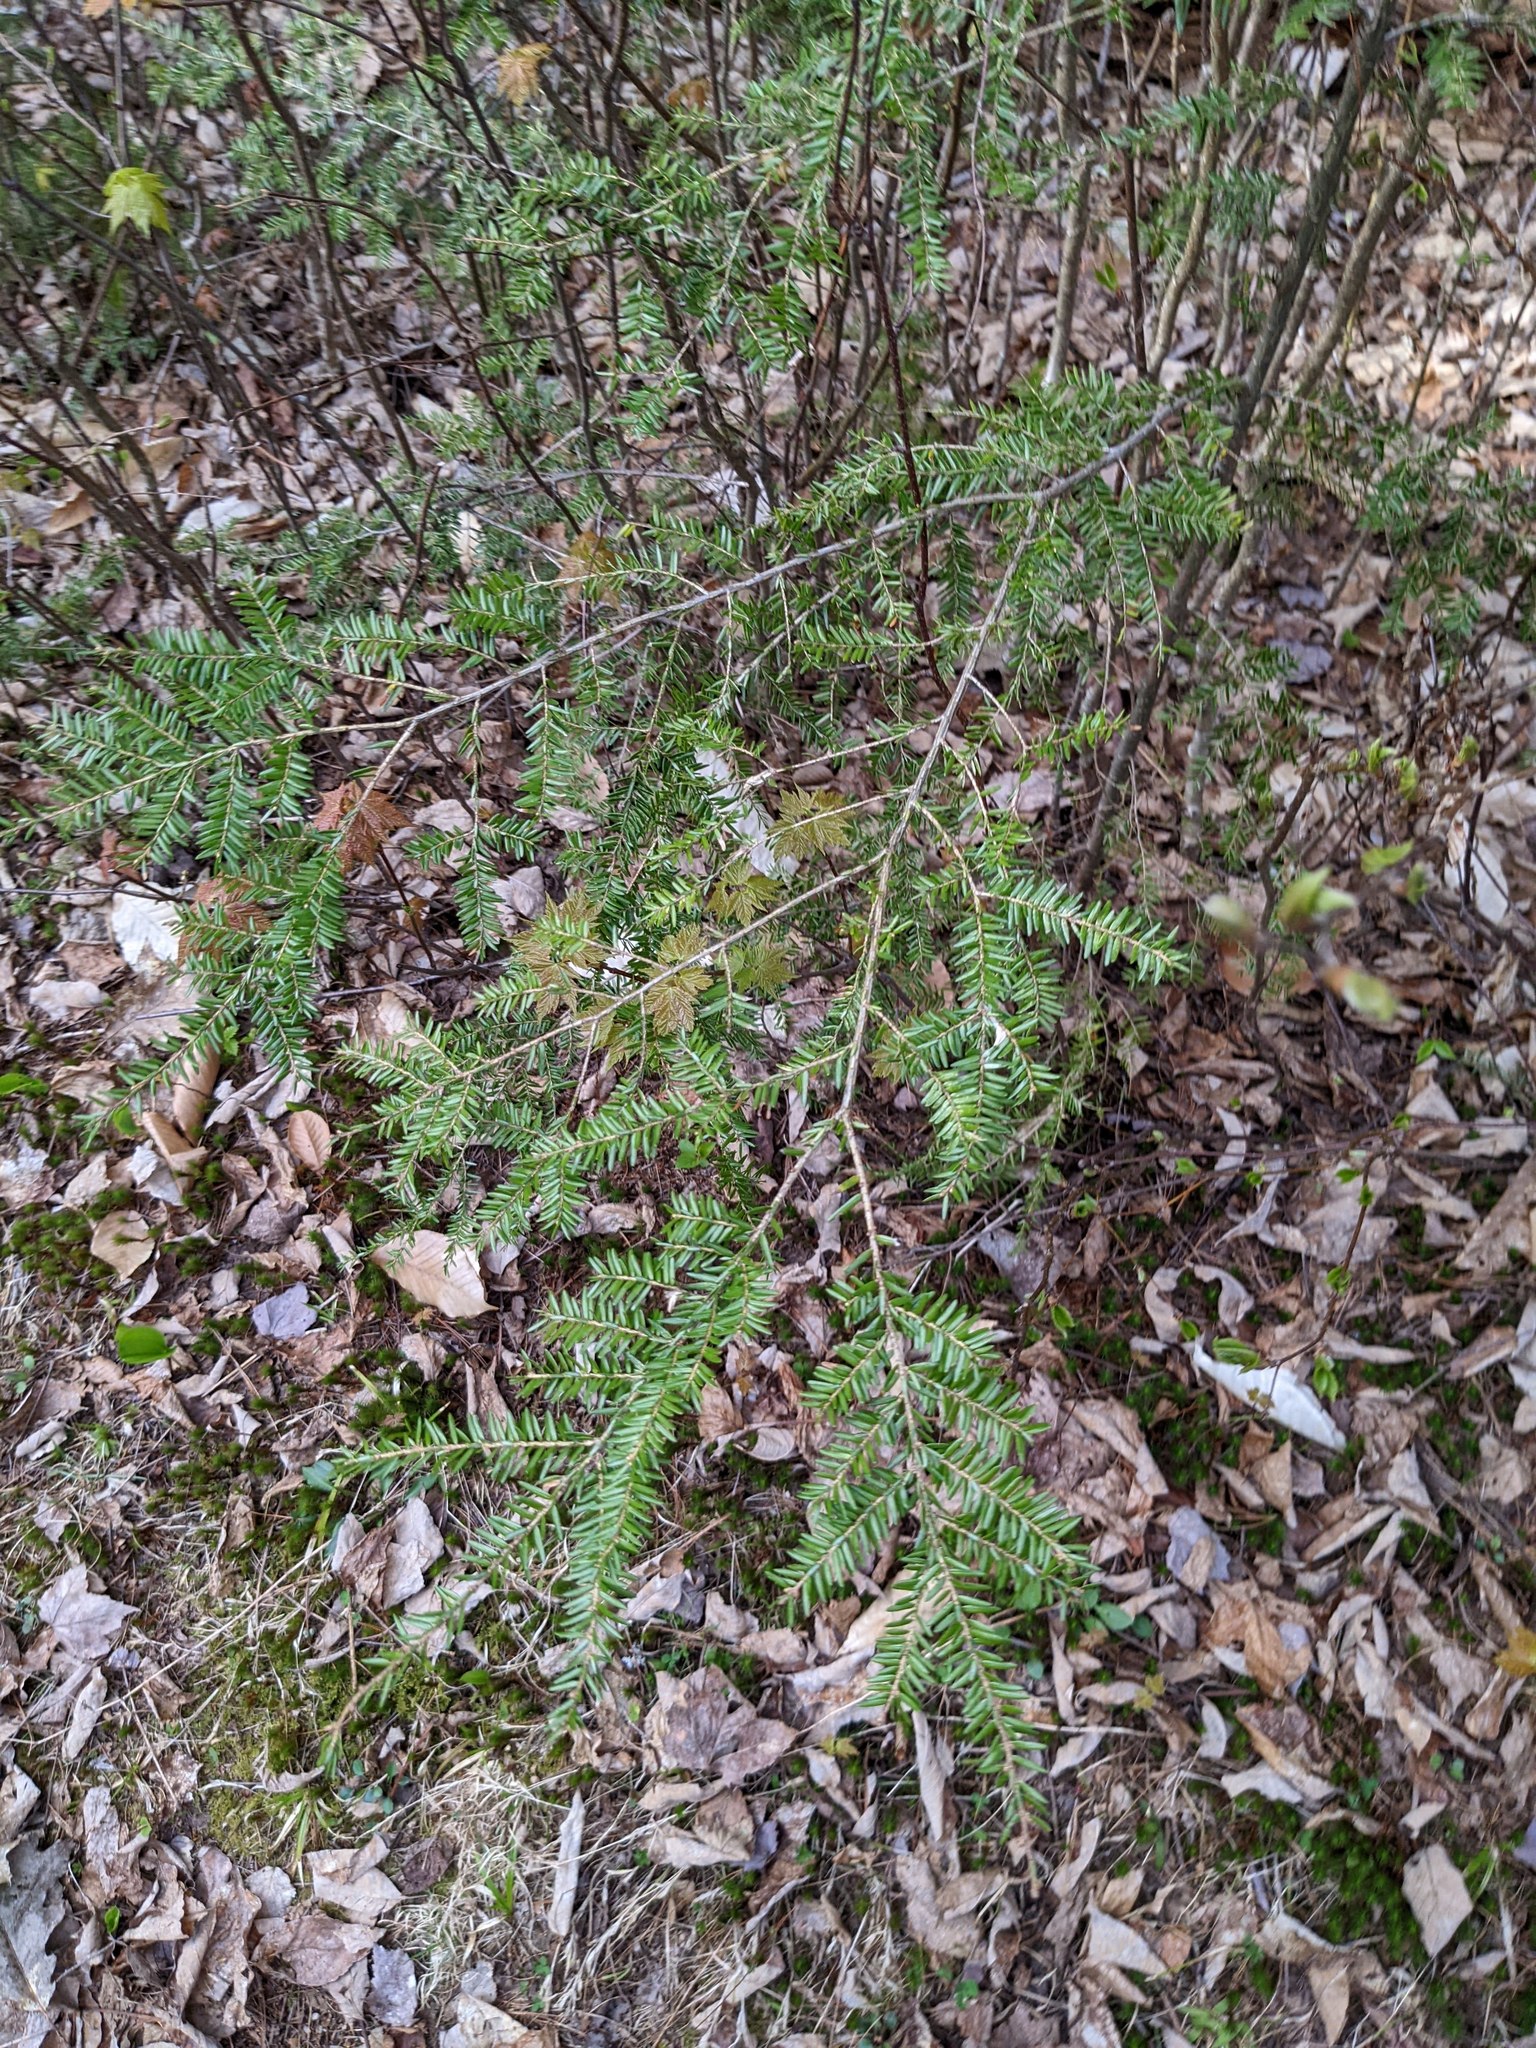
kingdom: Plantae
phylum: Tracheophyta
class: Pinopsida
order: Pinales
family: Pinaceae
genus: Tsuga
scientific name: Tsuga canadensis
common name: Eastern hemlock
